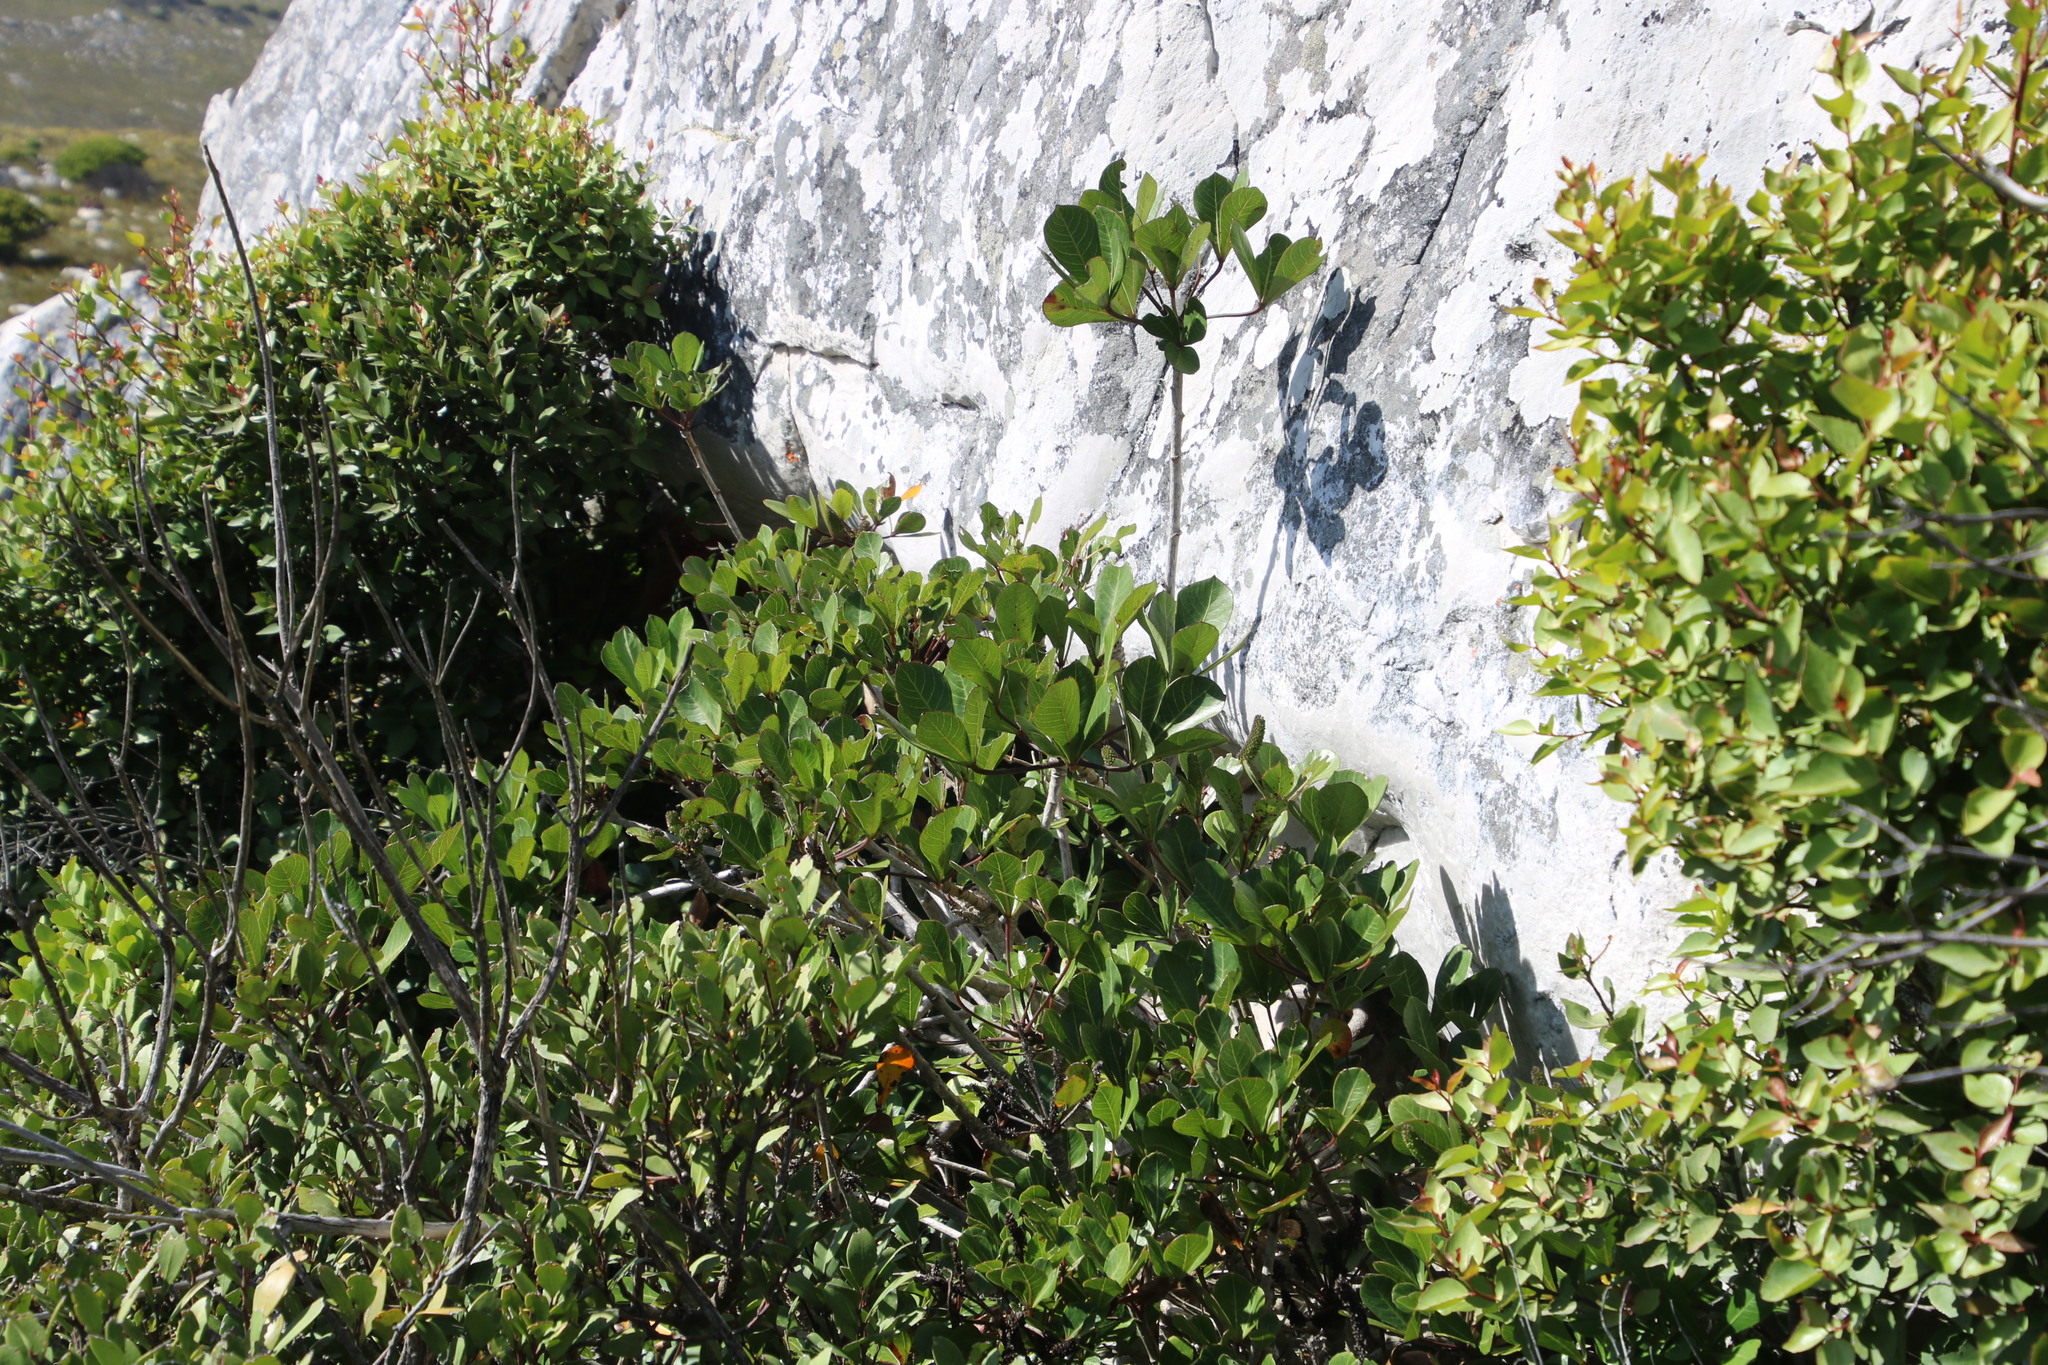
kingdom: Plantae
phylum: Tracheophyta
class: Magnoliopsida
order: Apiales
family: Araliaceae
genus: Cussonia
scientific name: Cussonia thyrsiflora
